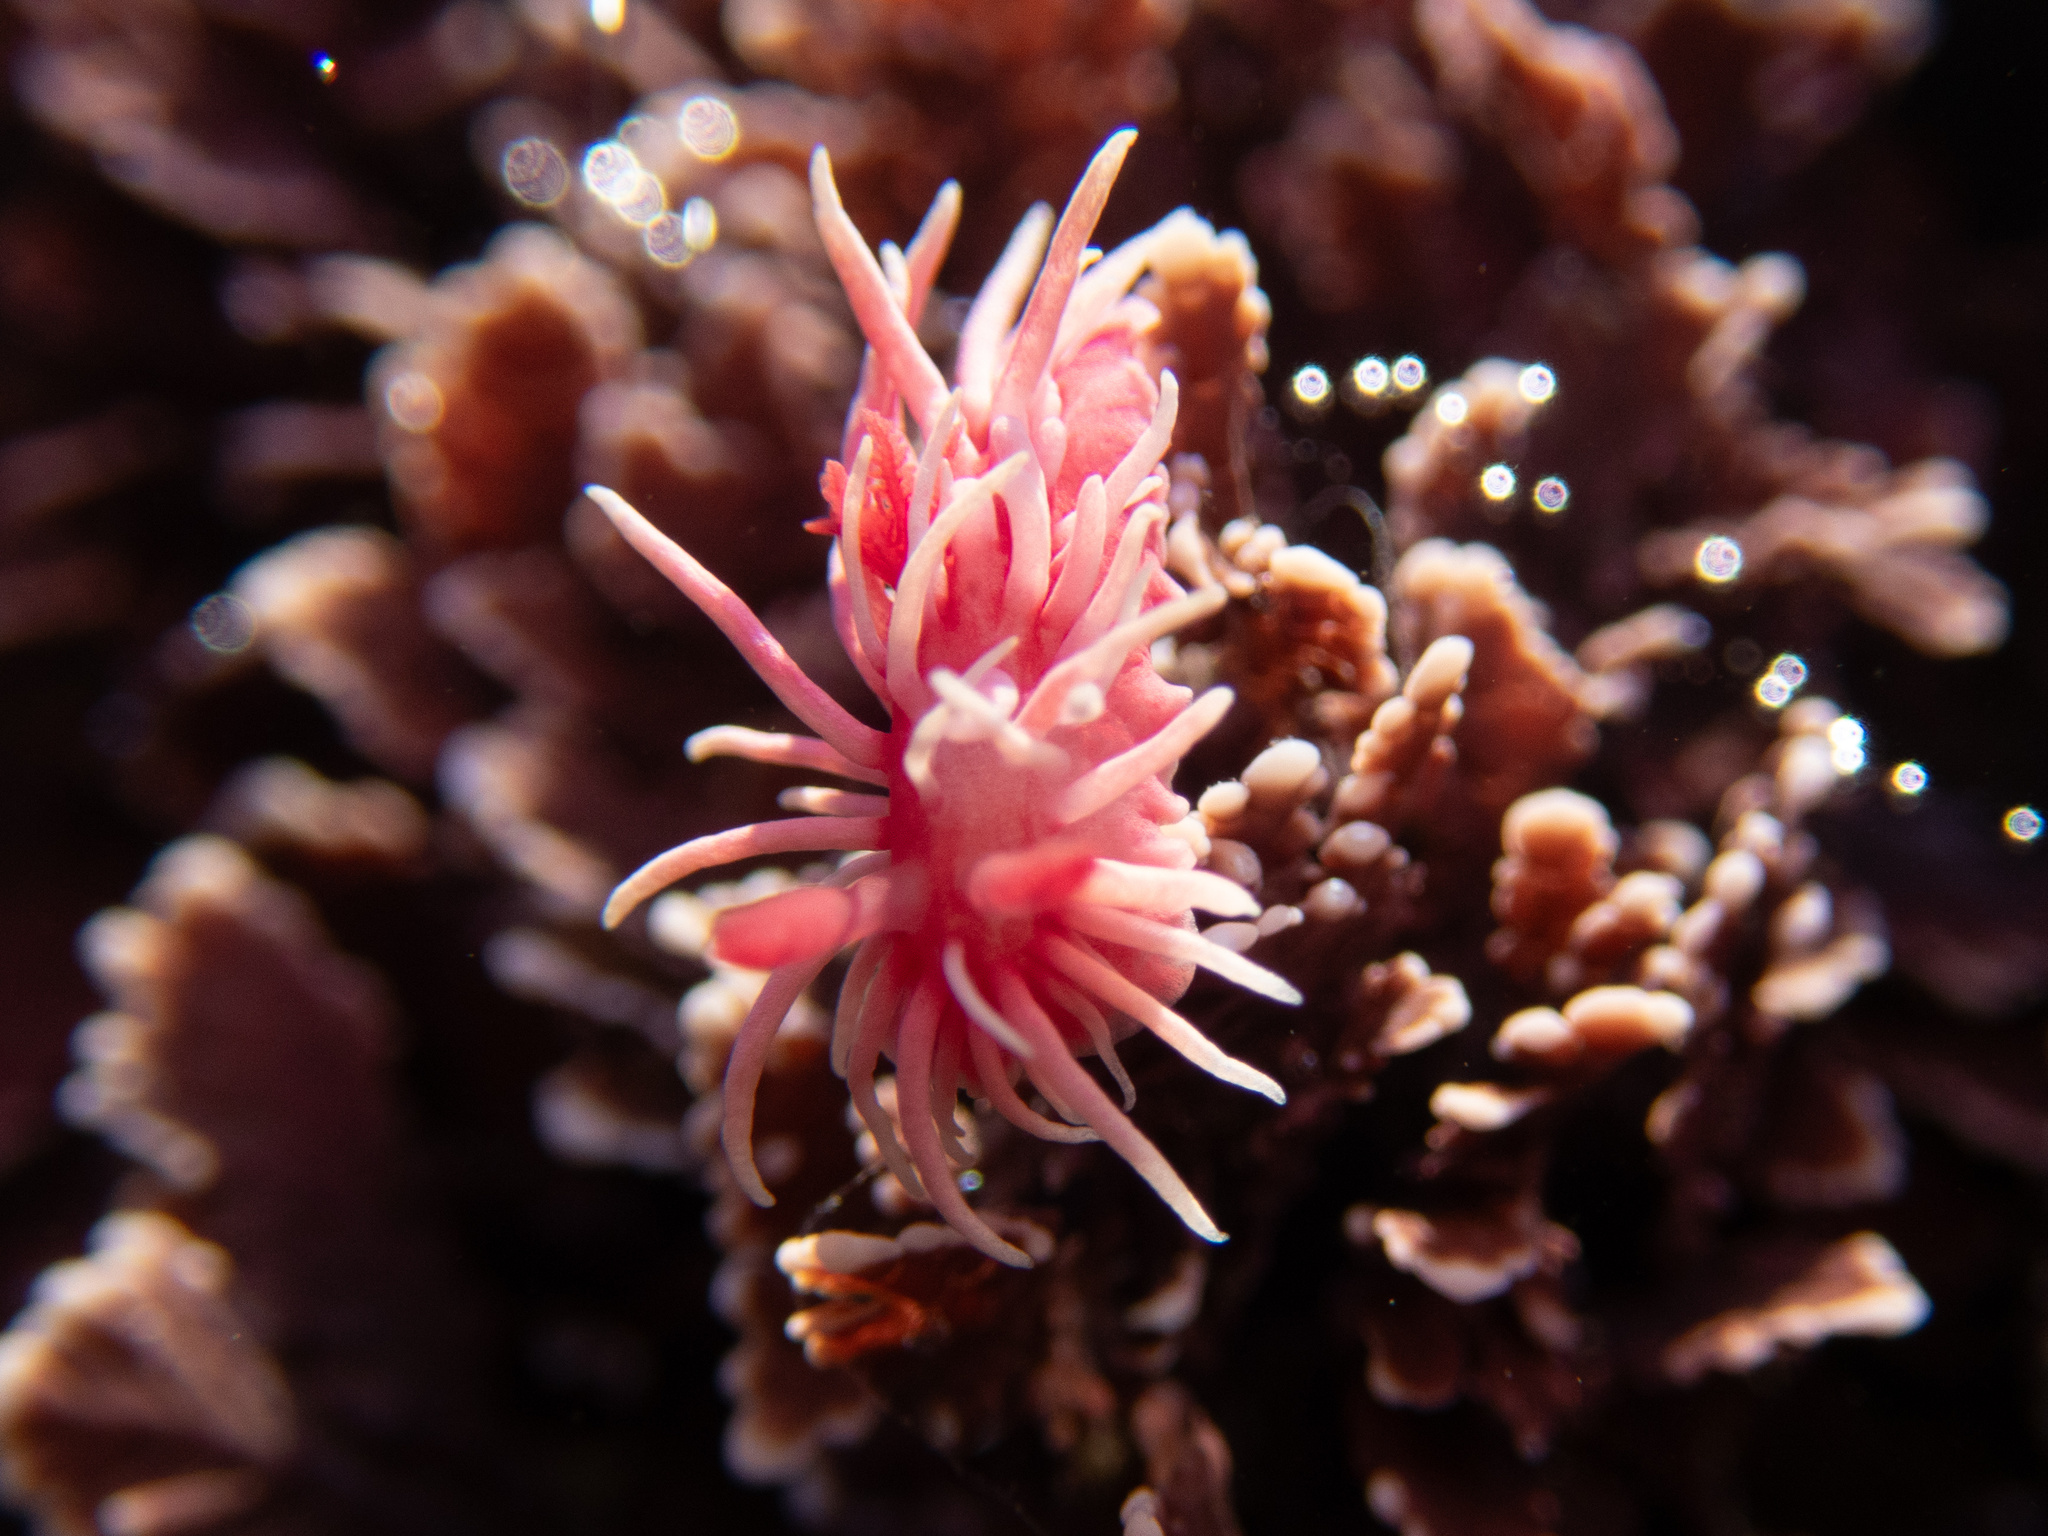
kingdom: Animalia
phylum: Mollusca
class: Gastropoda
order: Nudibranchia
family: Goniodorididae
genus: Okenia
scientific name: Okenia
